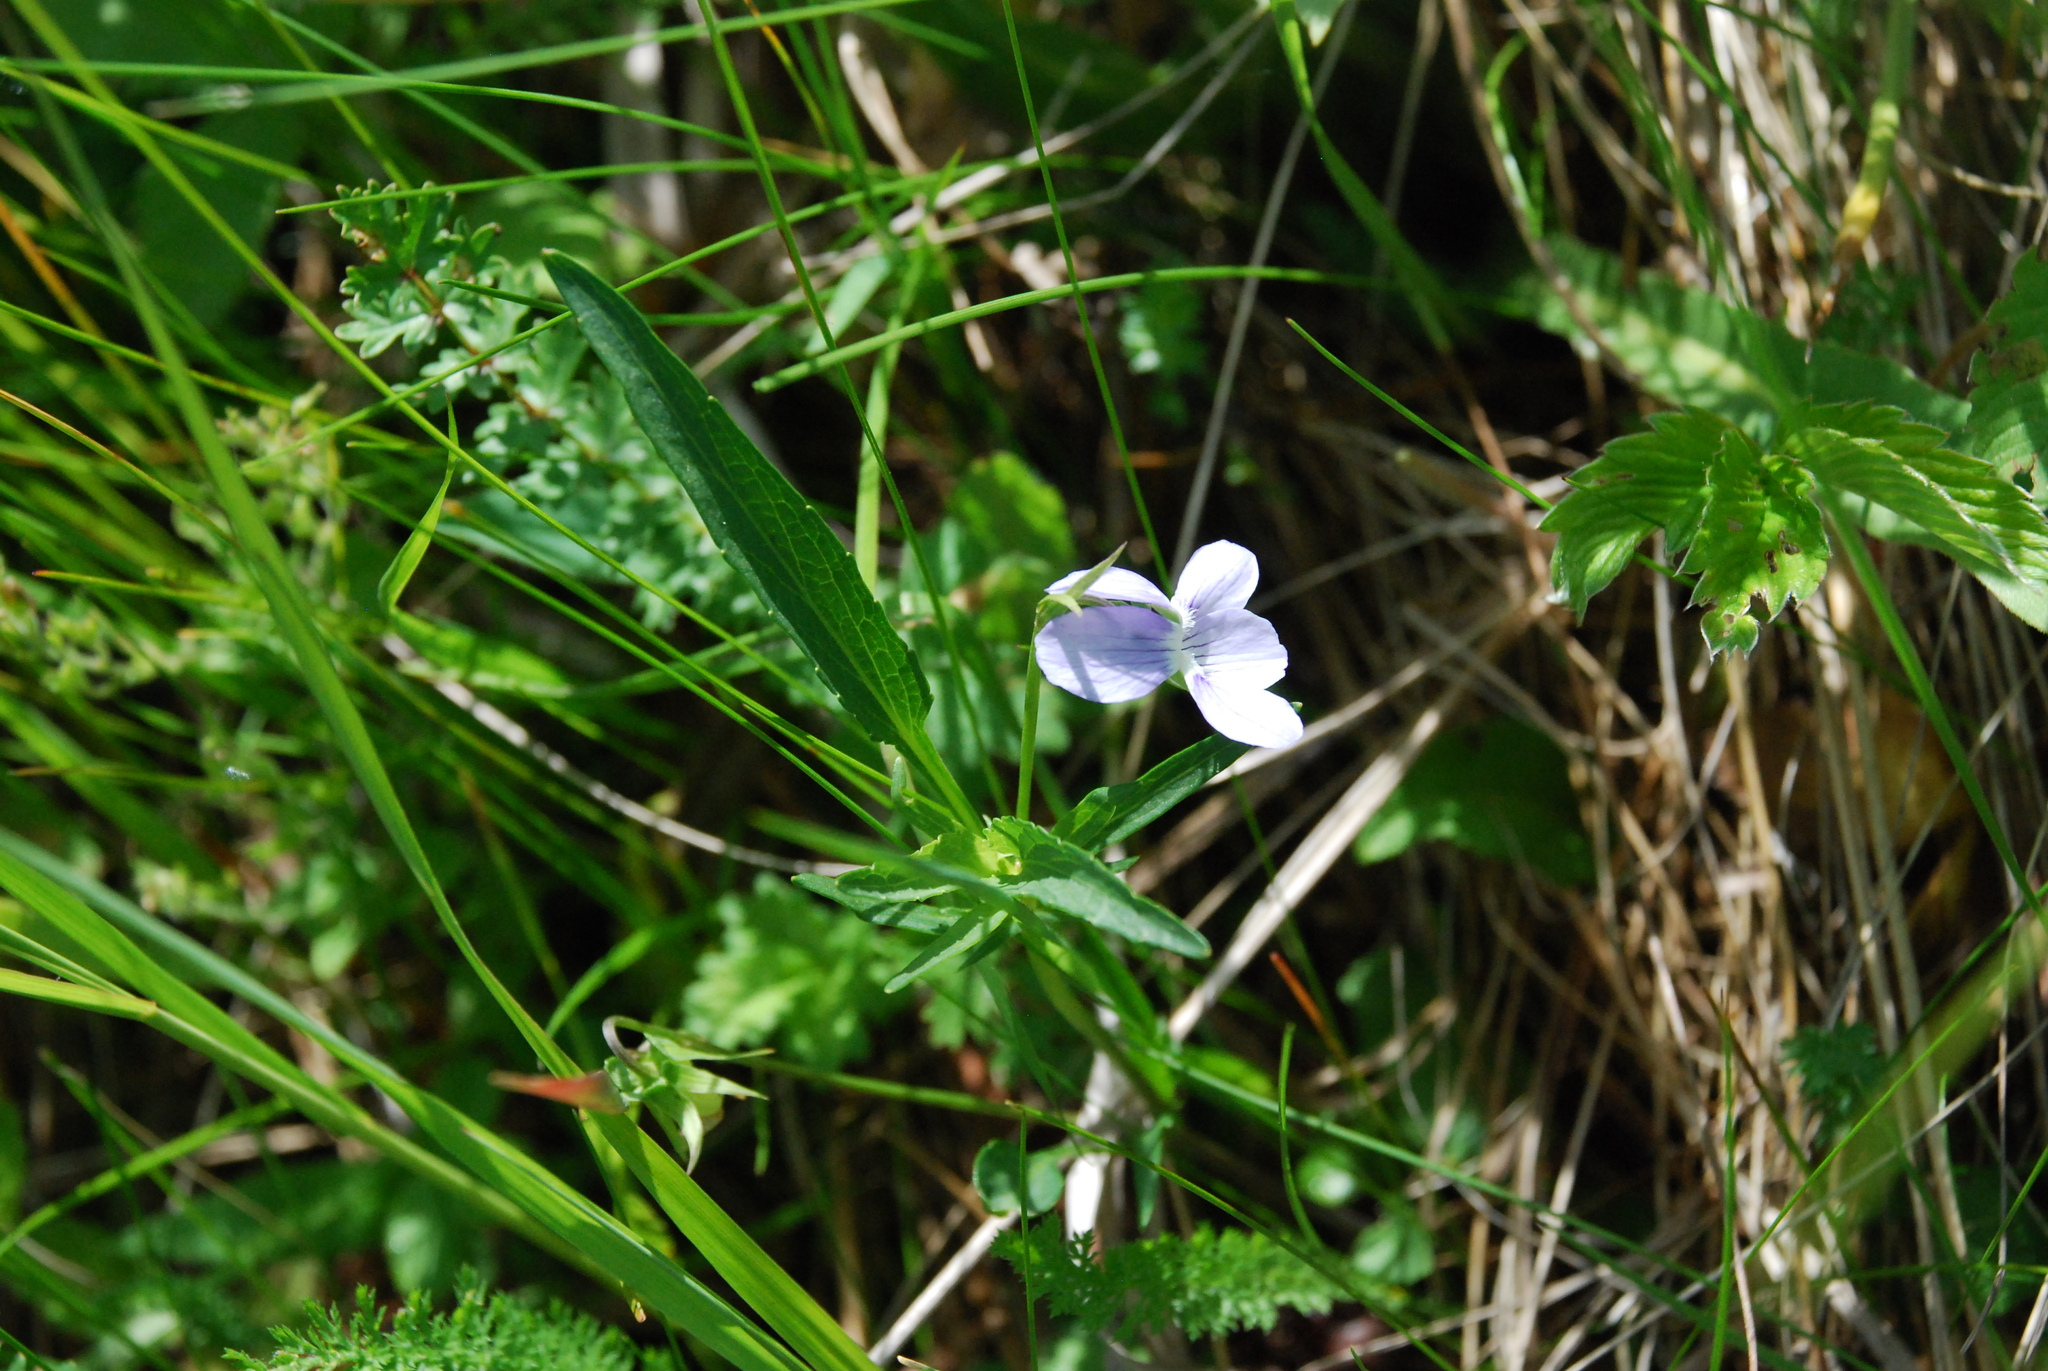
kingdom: Plantae
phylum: Tracheophyta
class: Magnoliopsida
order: Malpighiales
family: Violaceae
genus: Viola
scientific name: Viola elatior
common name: Tall violet
